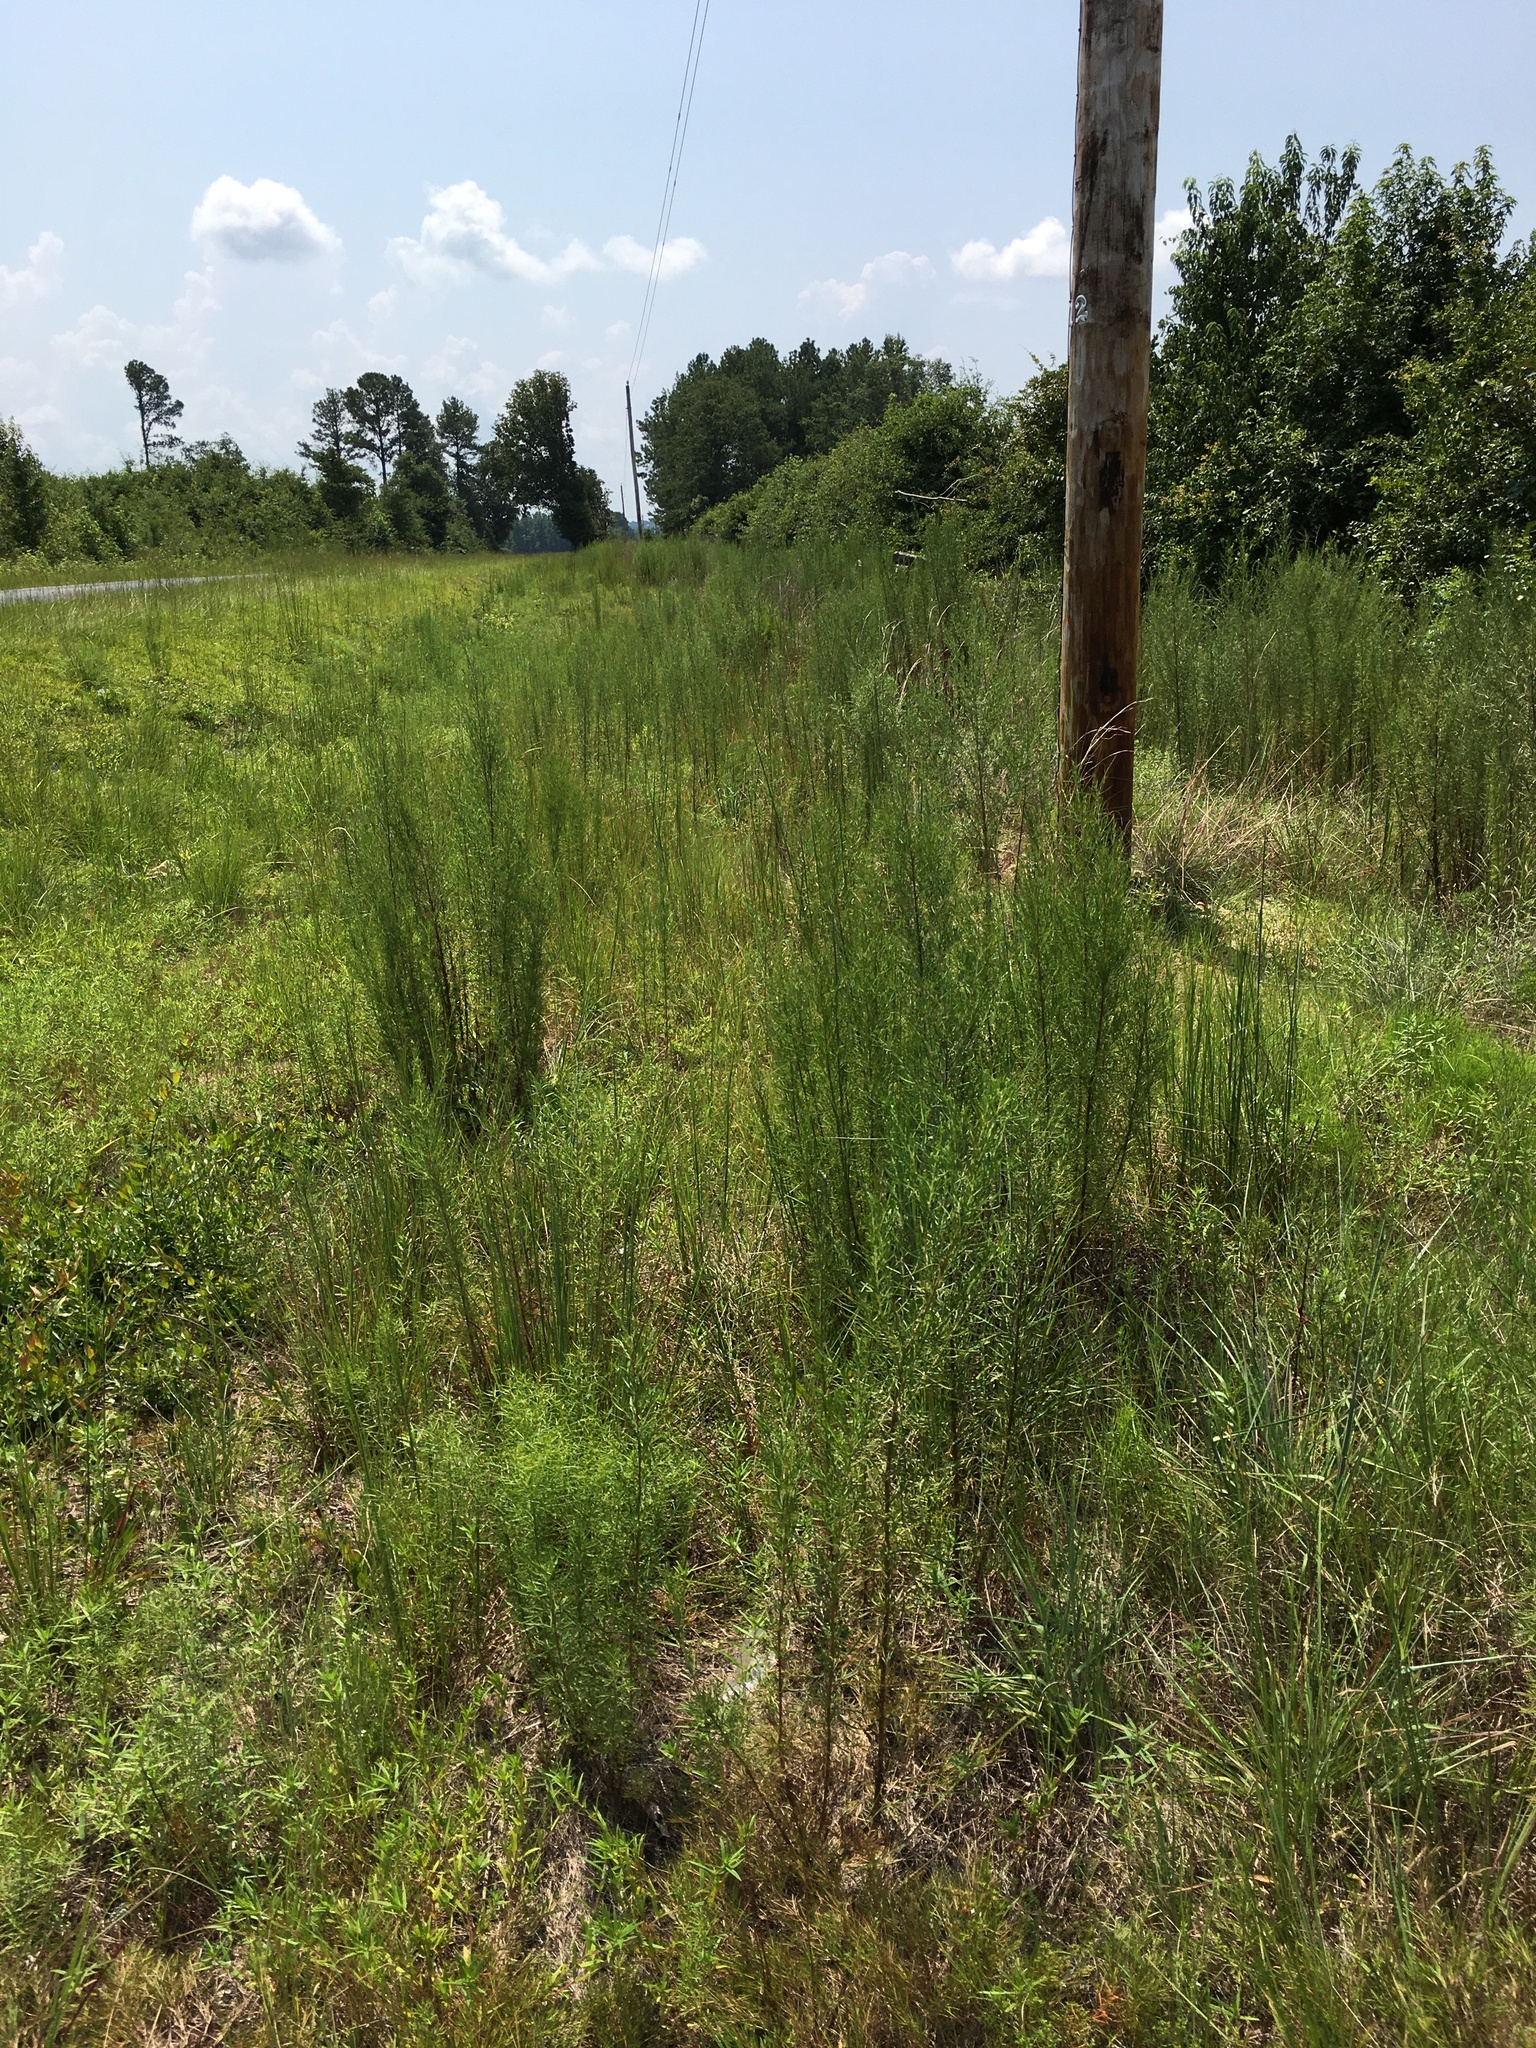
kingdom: Plantae
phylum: Tracheophyta
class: Magnoliopsida
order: Asterales
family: Asteraceae
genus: Eupatorium
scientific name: Eupatorium compositifolium
